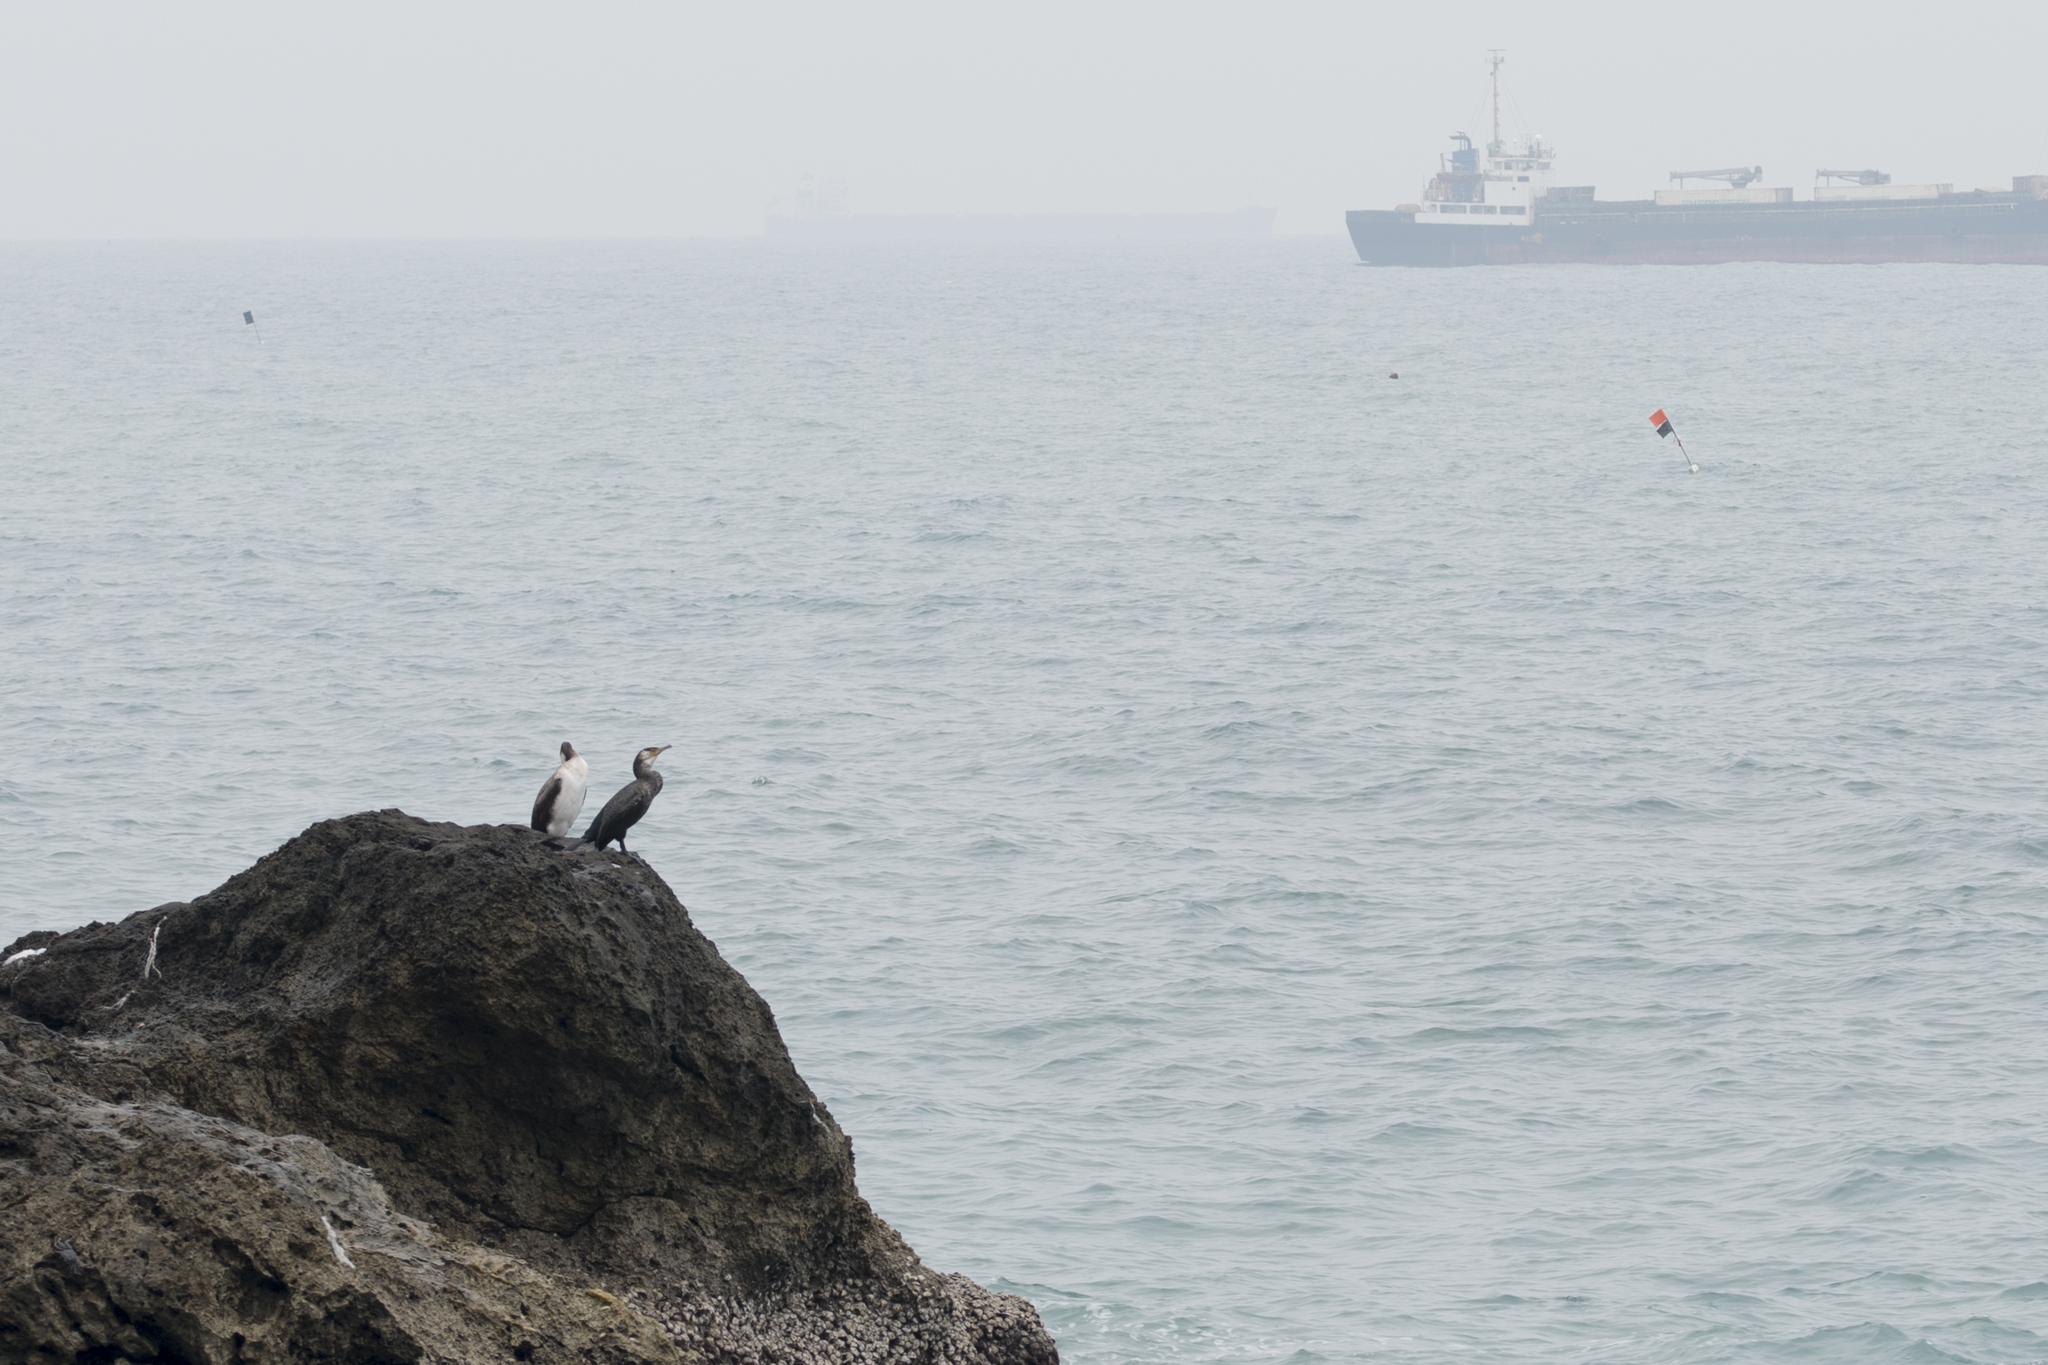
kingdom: Animalia
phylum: Chordata
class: Aves
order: Suliformes
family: Phalacrocoracidae
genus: Phalacrocorax
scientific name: Phalacrocorax carbo
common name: Great cormorant
